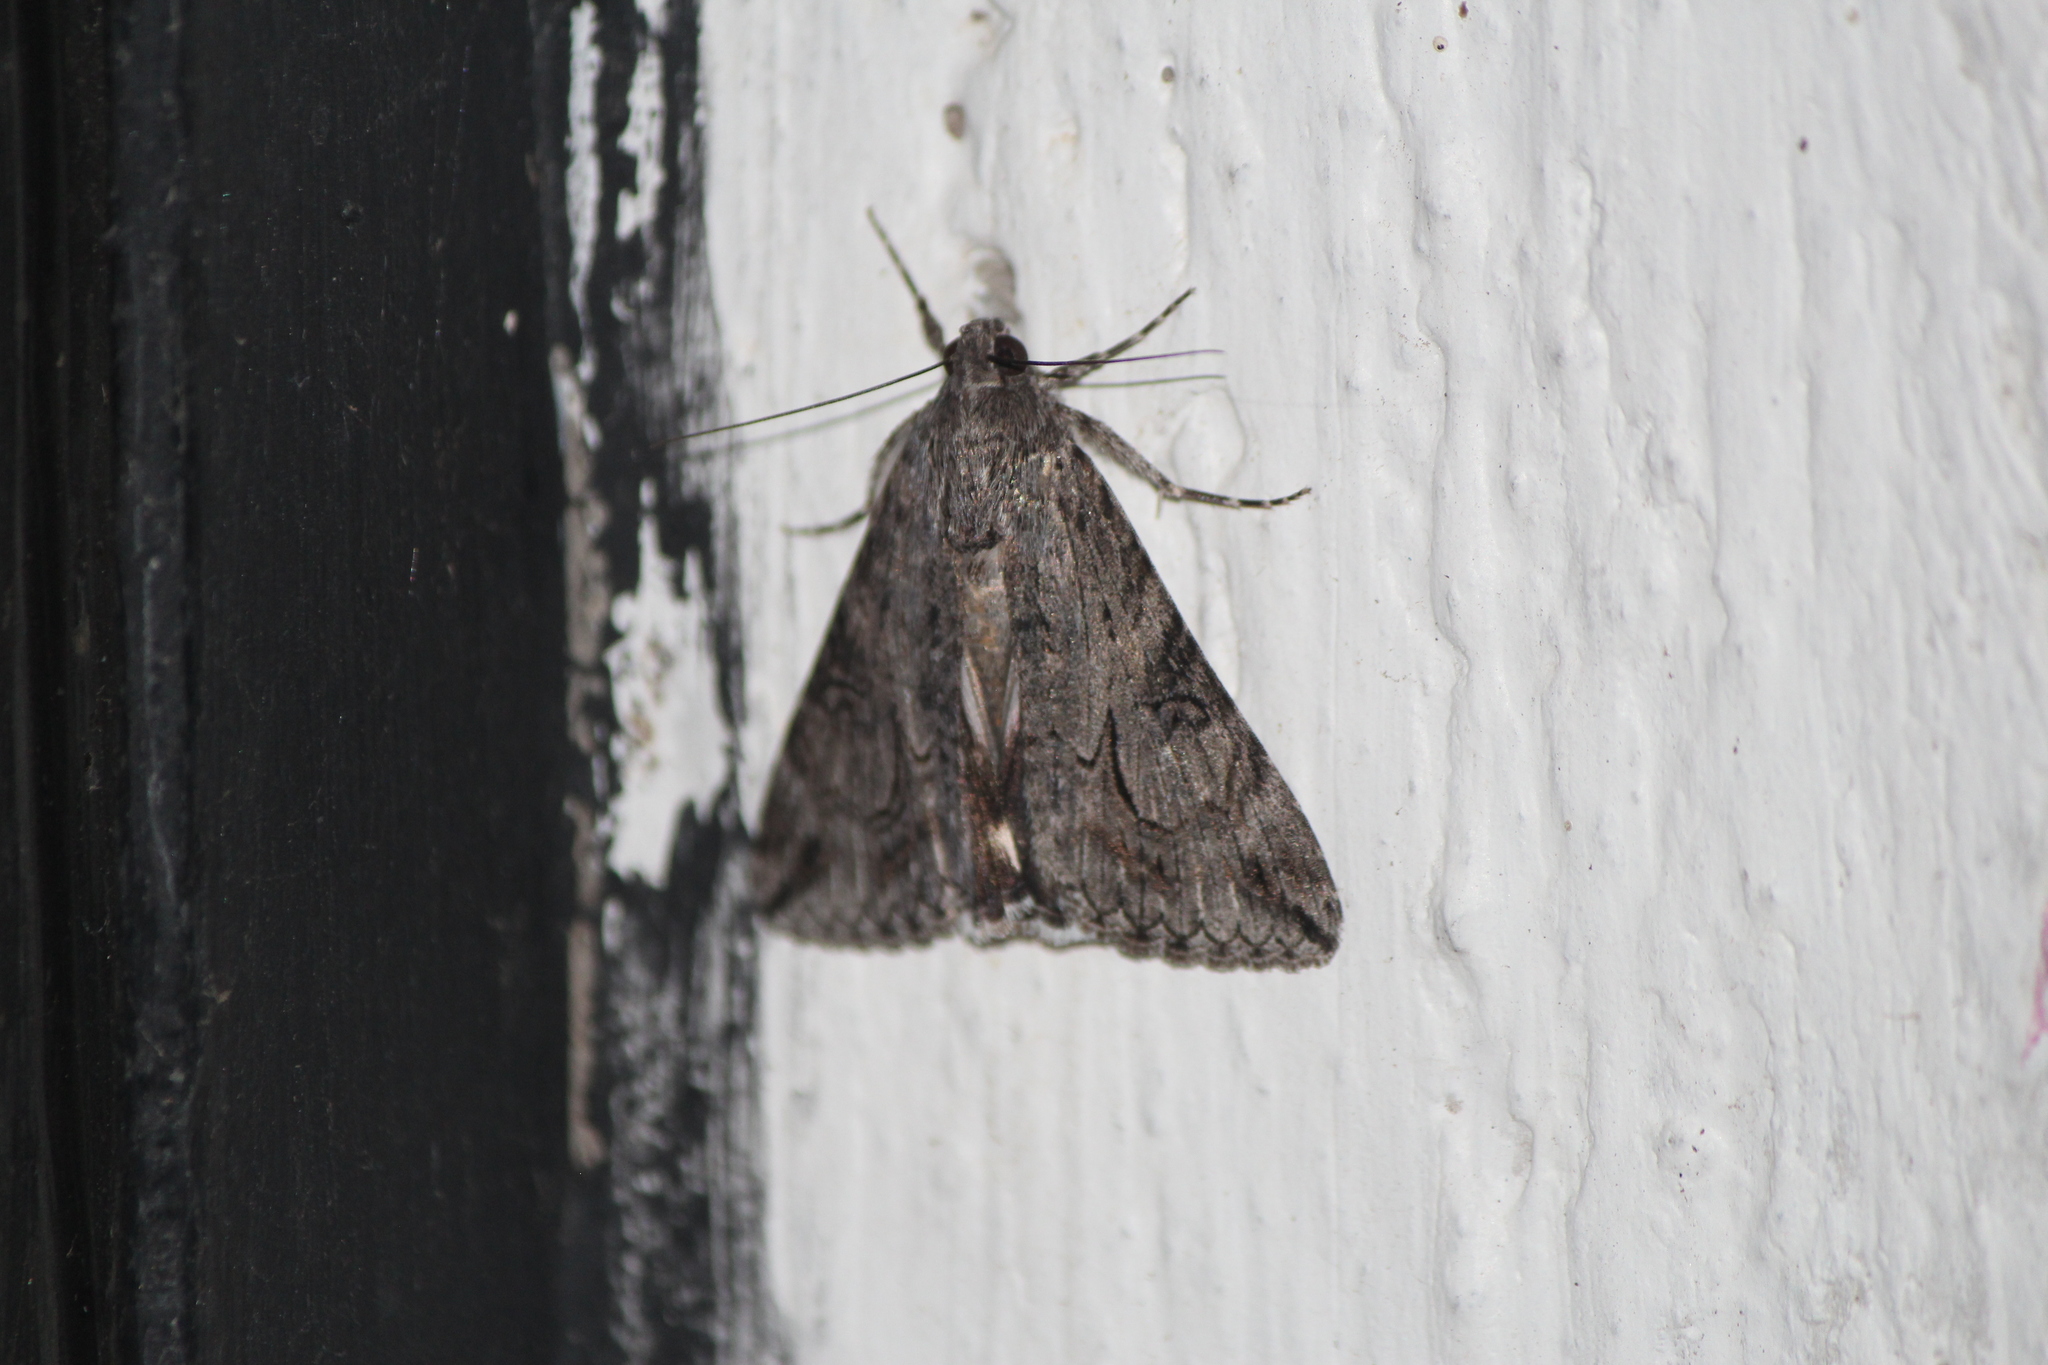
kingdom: Animalia
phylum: Arthropoda
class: Insecta
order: Lepidoptera
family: Erebidae
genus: Melipotis
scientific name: Melipotis jucunda
